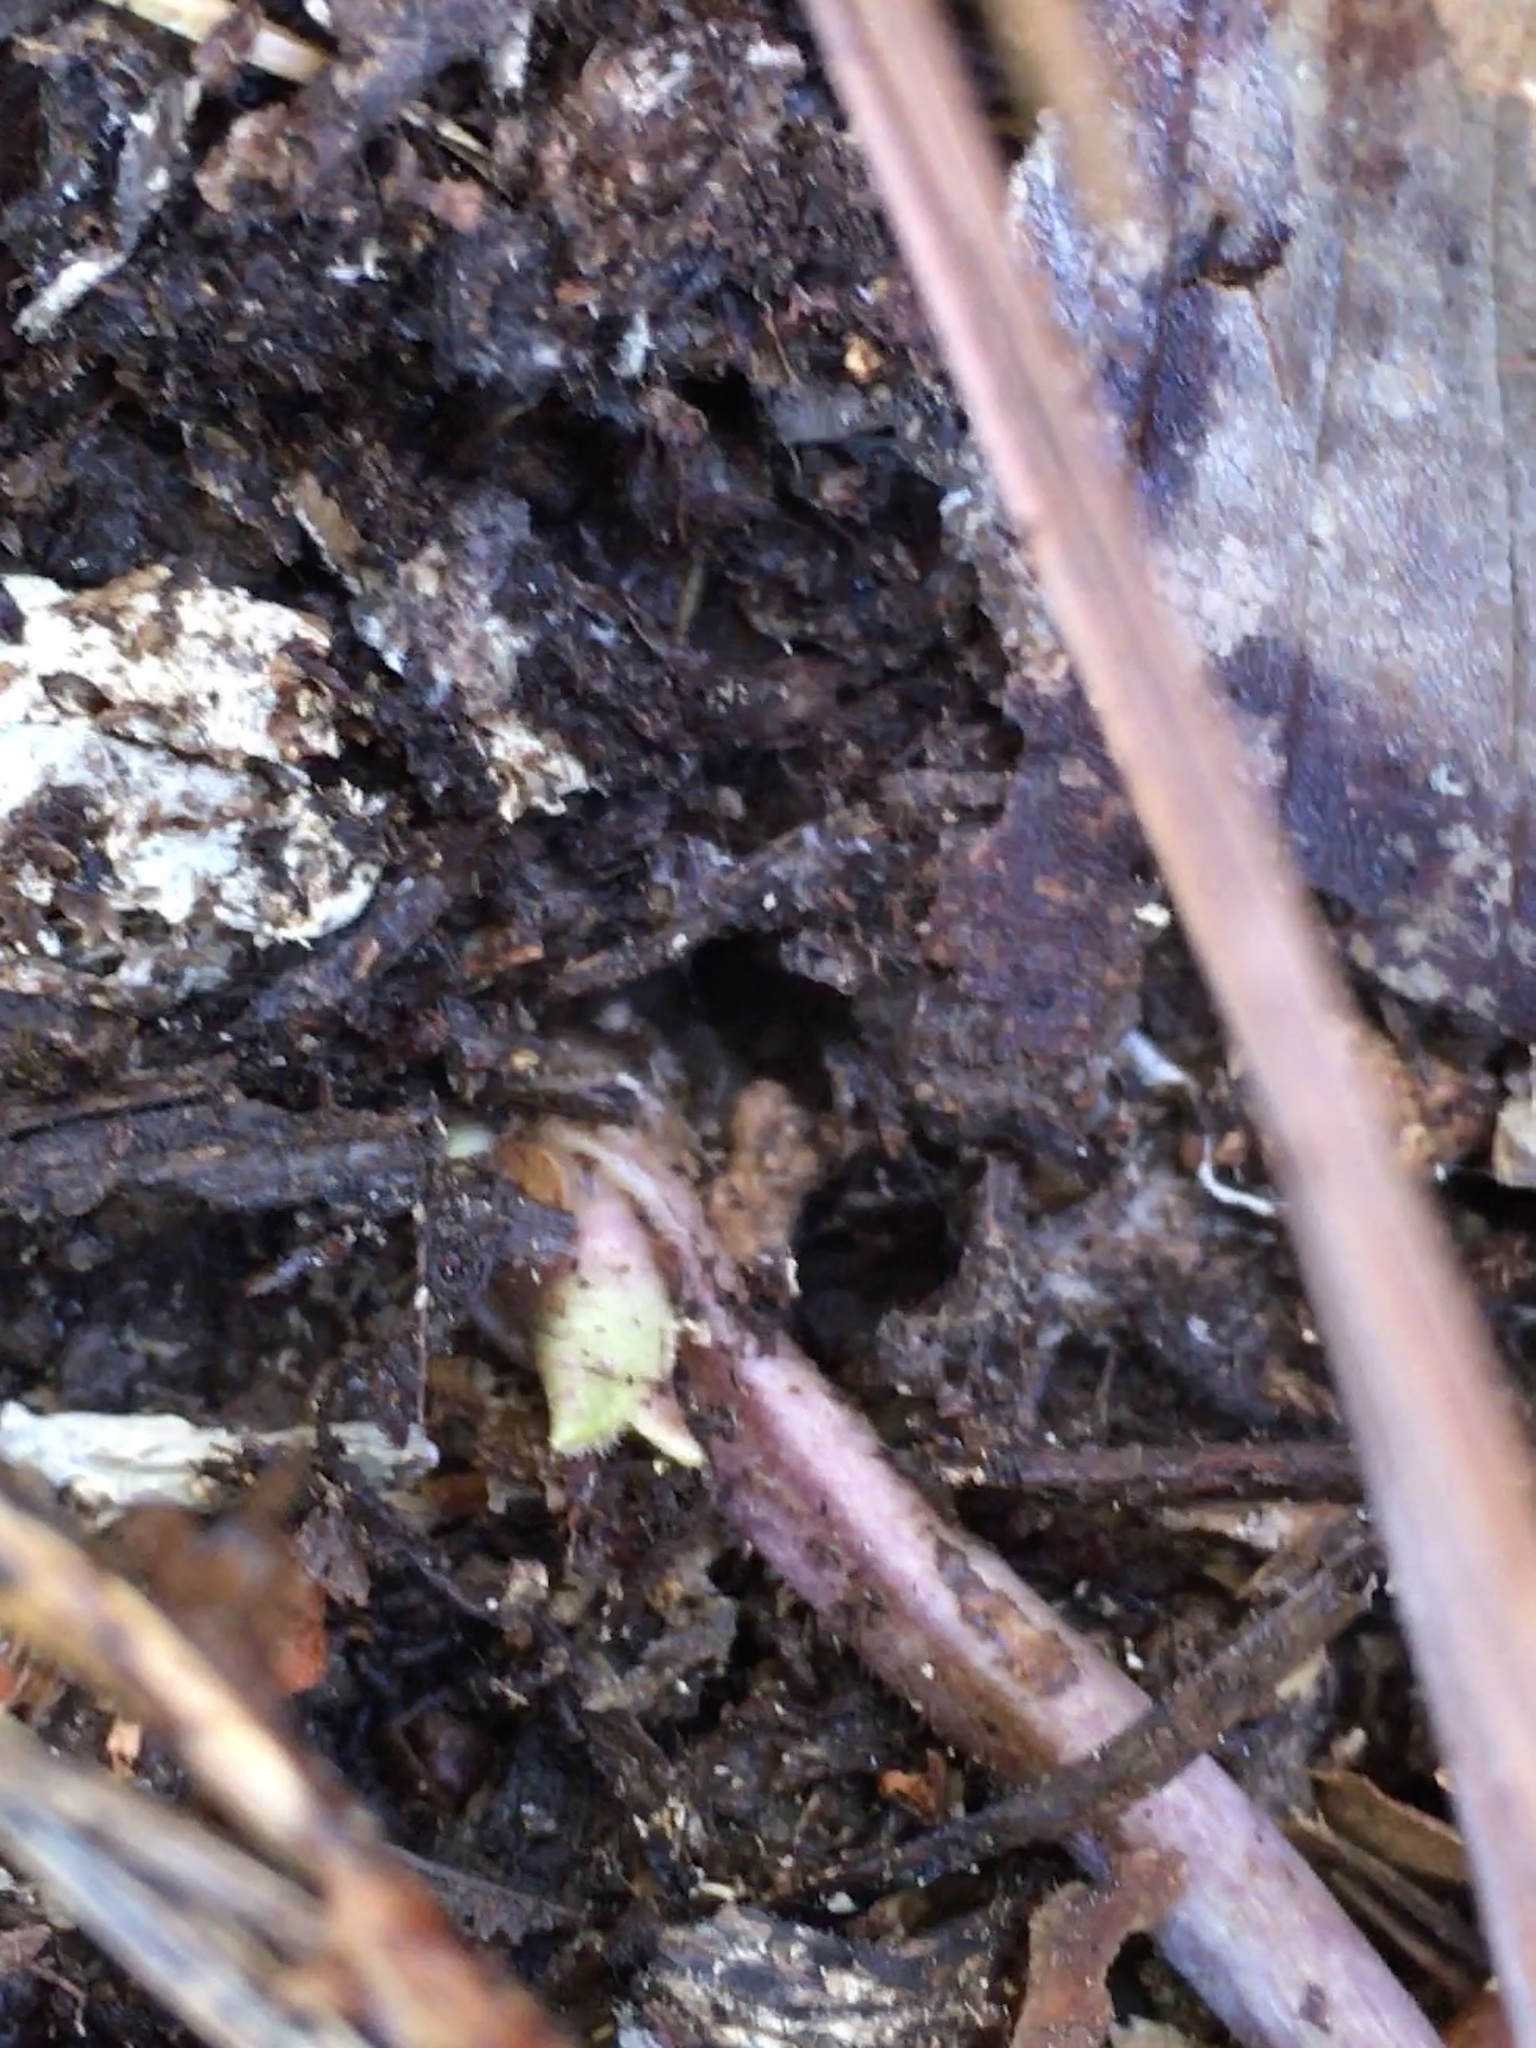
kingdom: Plantae
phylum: Tracheophyta
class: Magnoliopsida
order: Piperales
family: Aristolochiaceae
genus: Hexastylis
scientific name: Hexastylis arifolia
